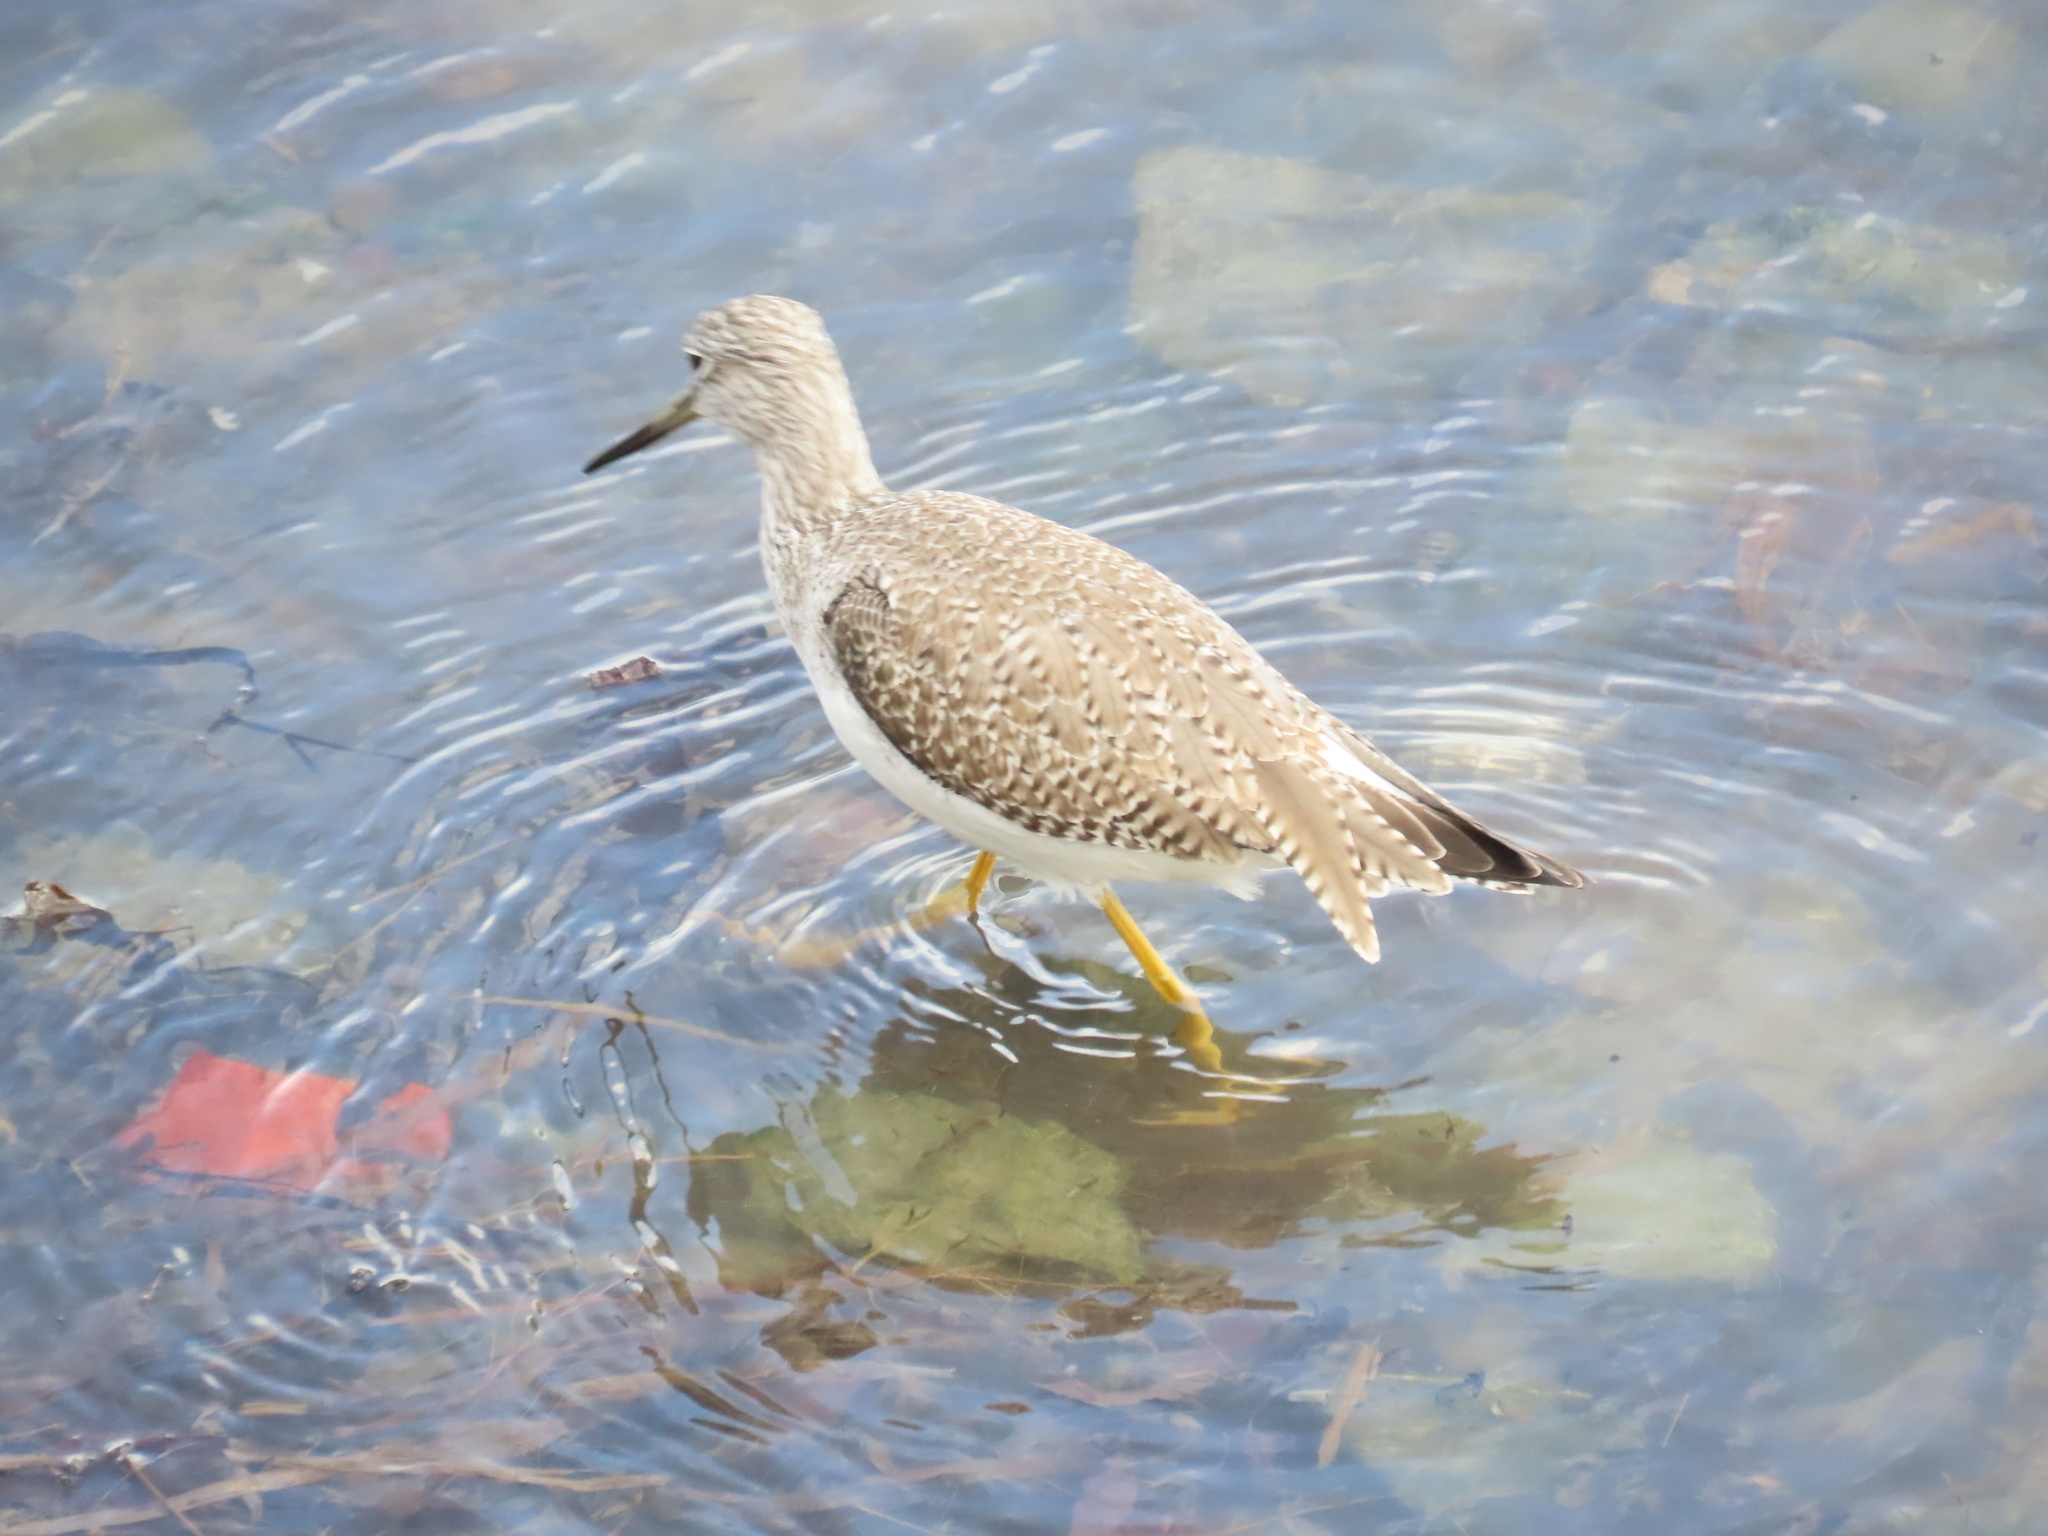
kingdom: Animalia
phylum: Chordata
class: Aves
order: Charadriiformes
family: Scolopacidae
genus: Tringa
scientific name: Tringa melanoleuca
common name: Greater yellowlegs
